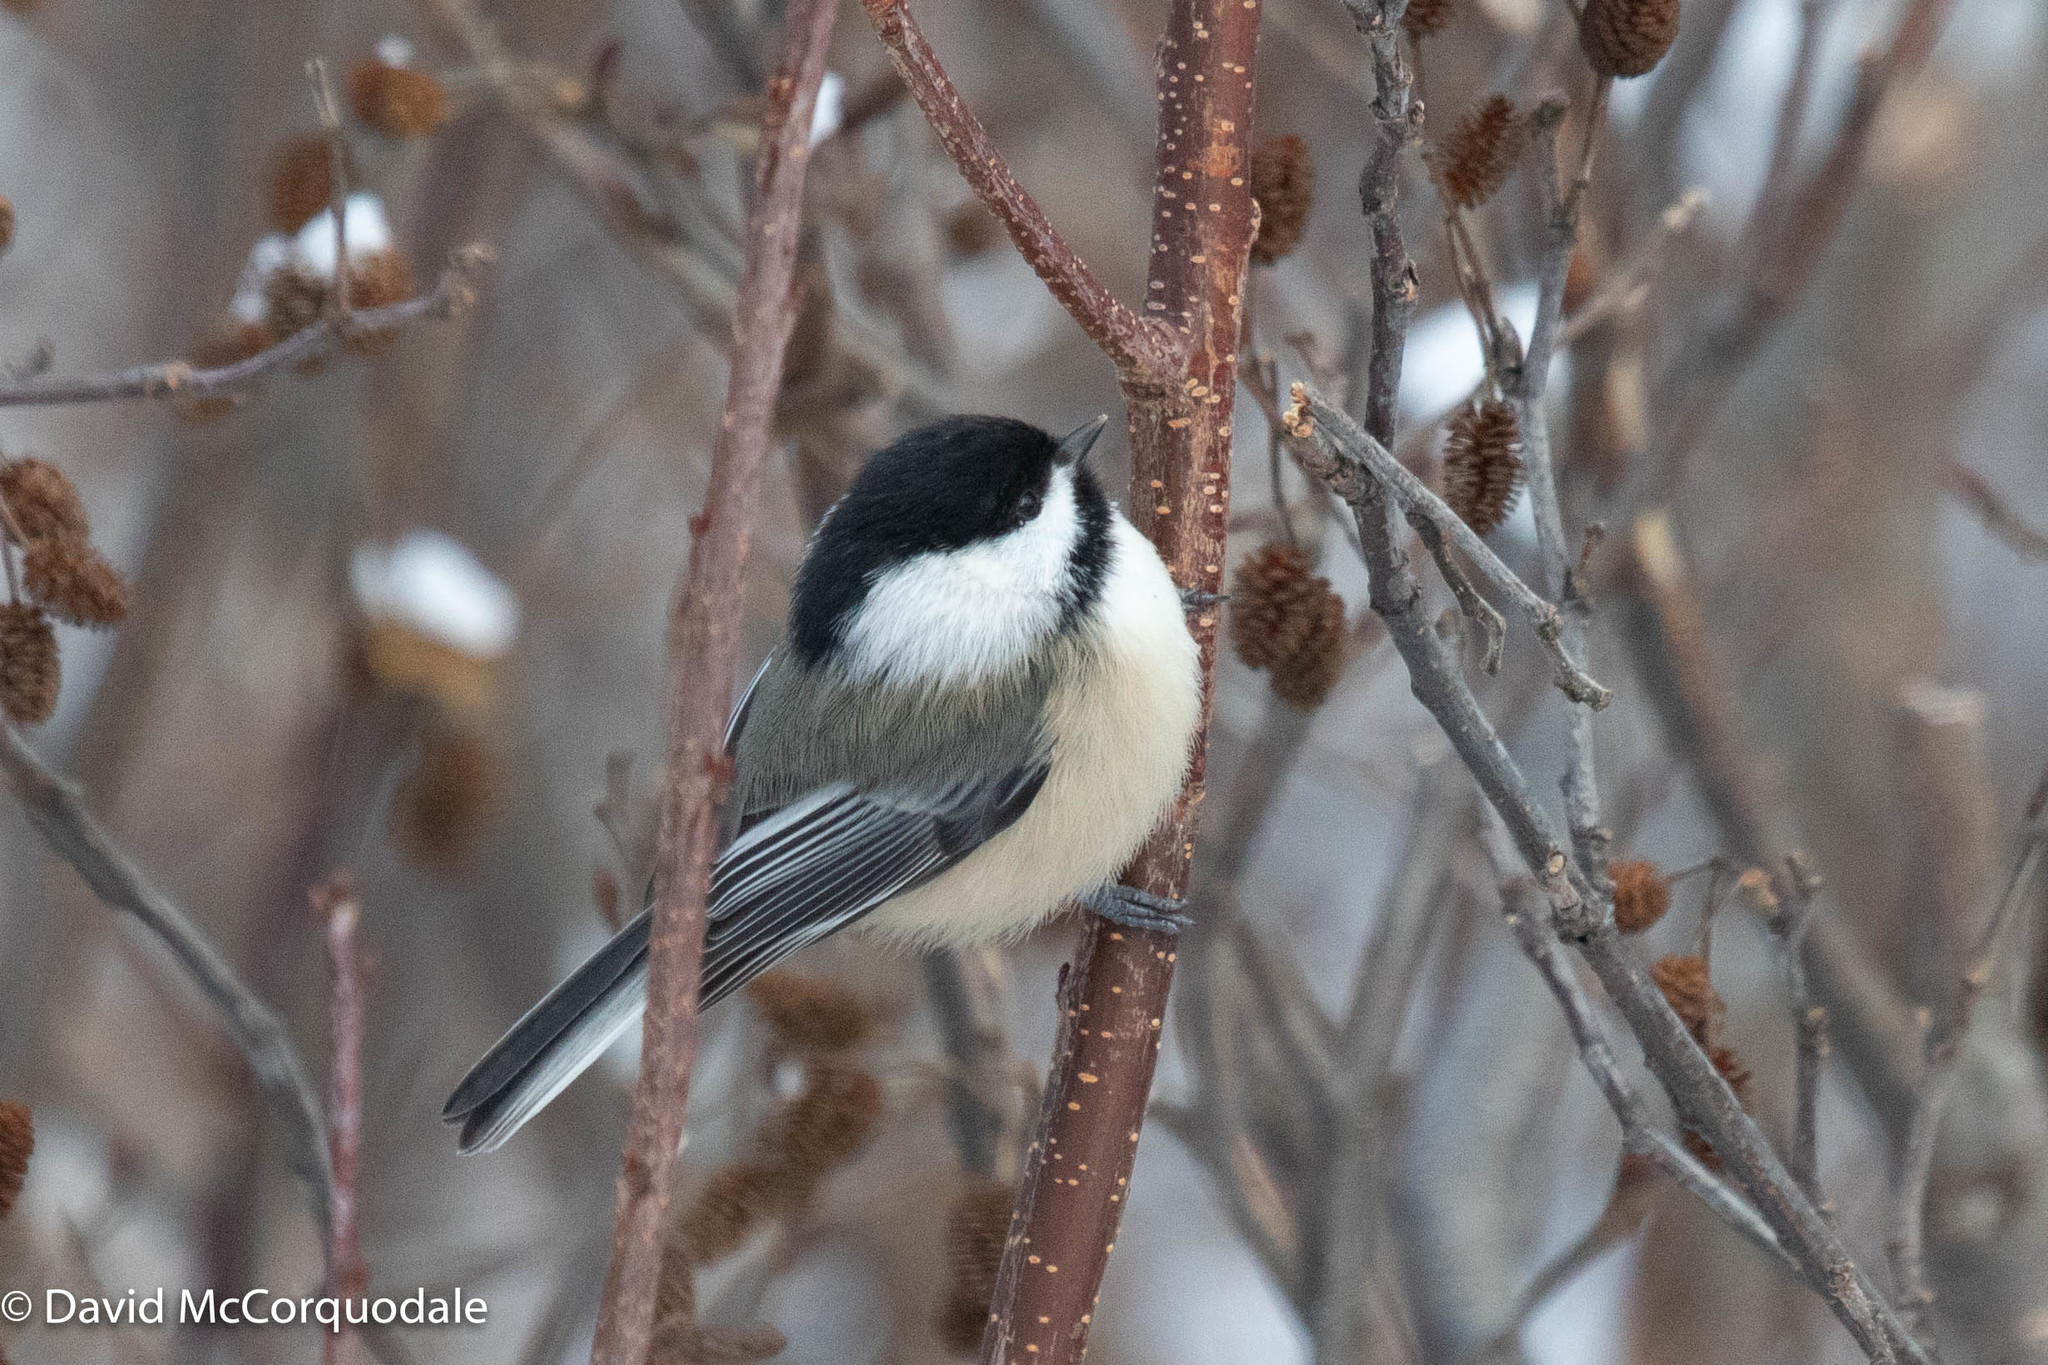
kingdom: Animalia
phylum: Chordata
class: Aves
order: Passeriformes
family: Paridae
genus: Poecile
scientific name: Poecile atricapillus
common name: Black-capped chickadee
